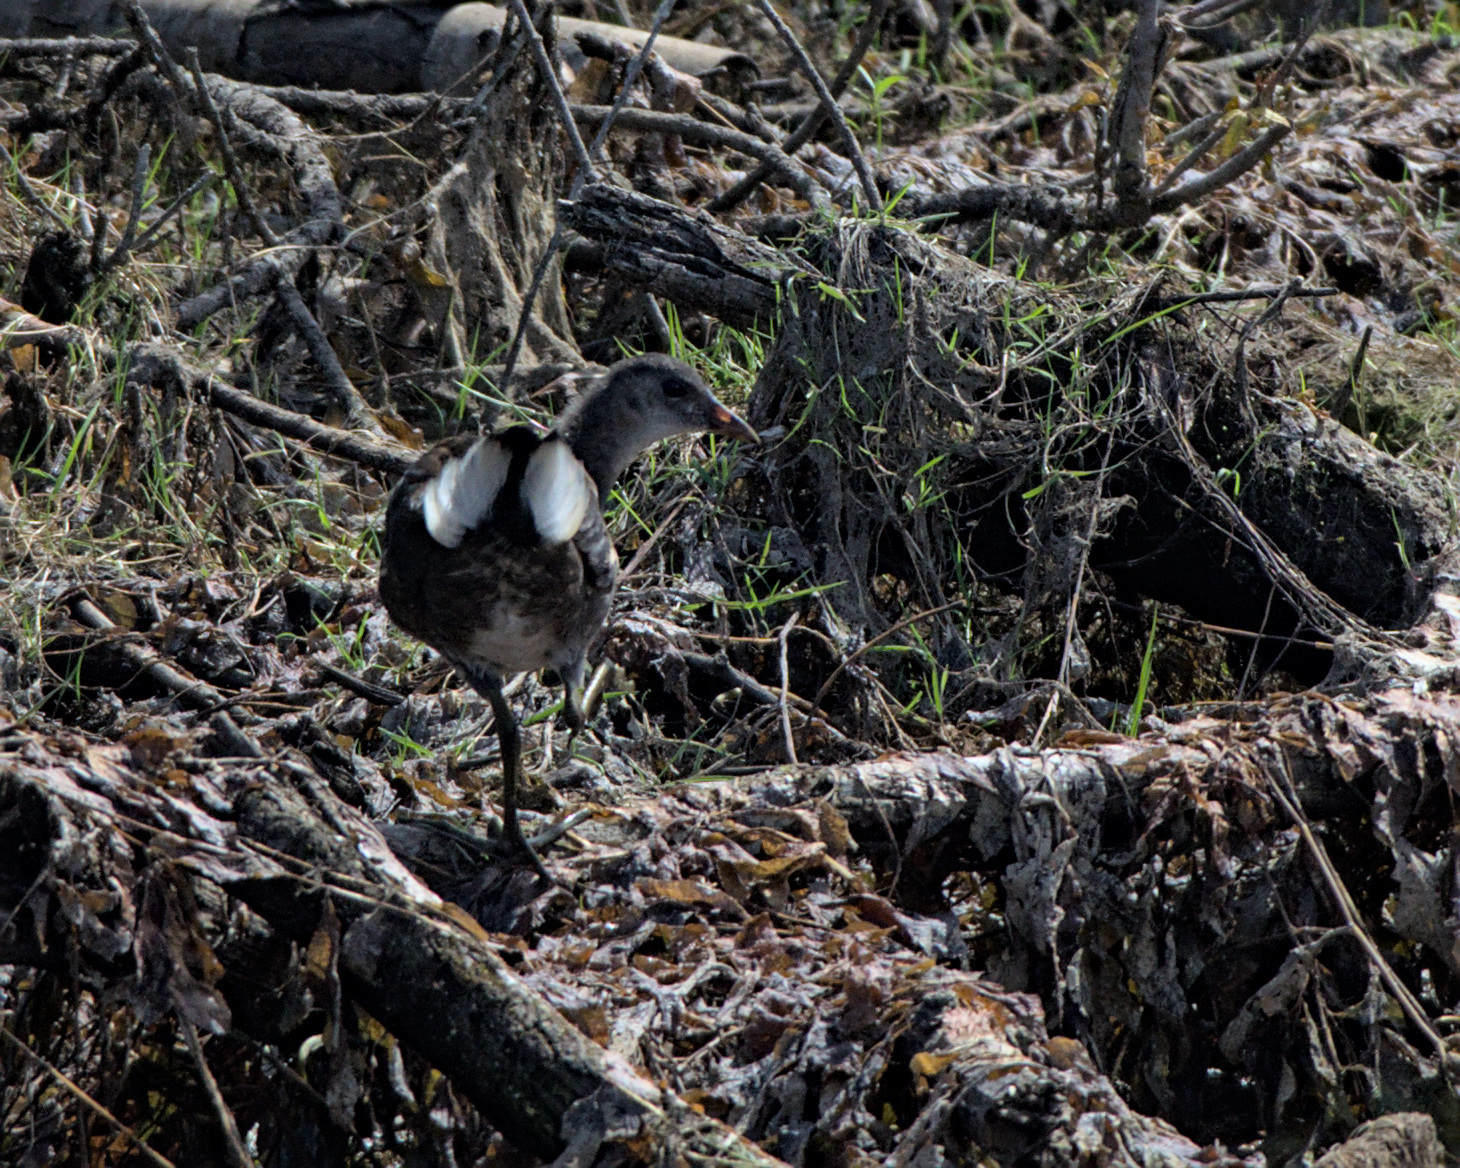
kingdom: Animalia
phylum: Chordata
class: Aves
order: Gruiformes
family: Rallidae
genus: Gallinula
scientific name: Gallinula chloropus
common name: Common moorhen
